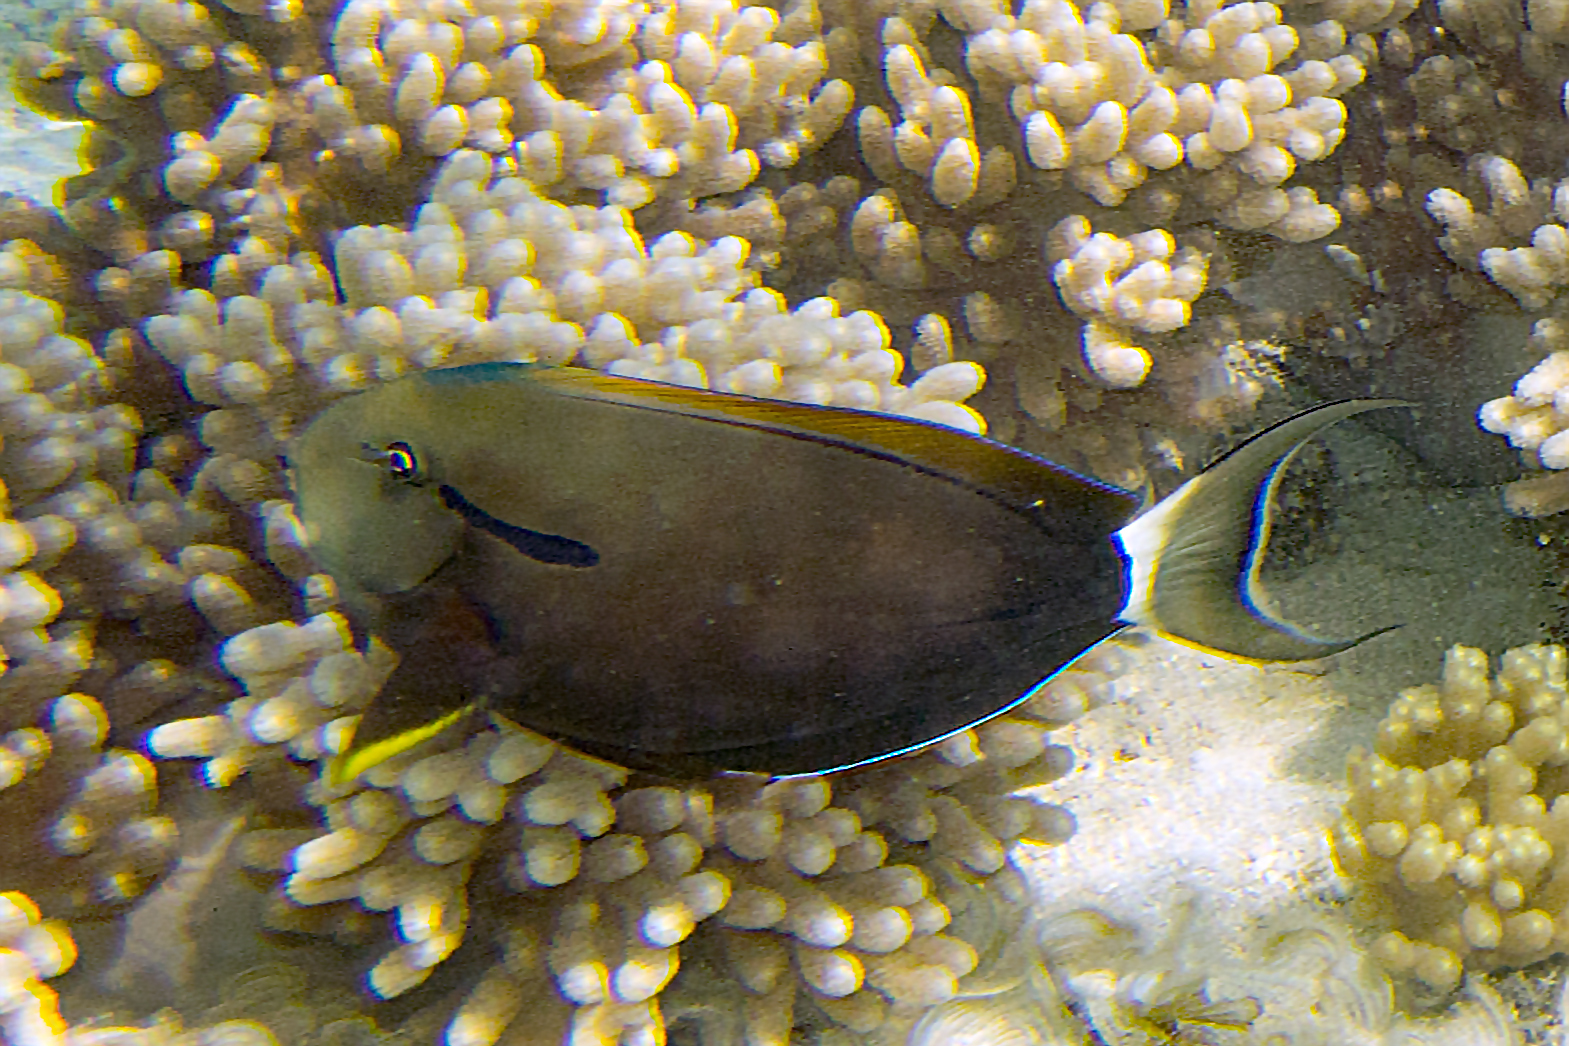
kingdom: Animalia
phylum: Chordata
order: Perciformes
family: Acanthuridae
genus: Acanthurus
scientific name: Acanthurus nigricauda
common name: Black-barred surgeonfish
